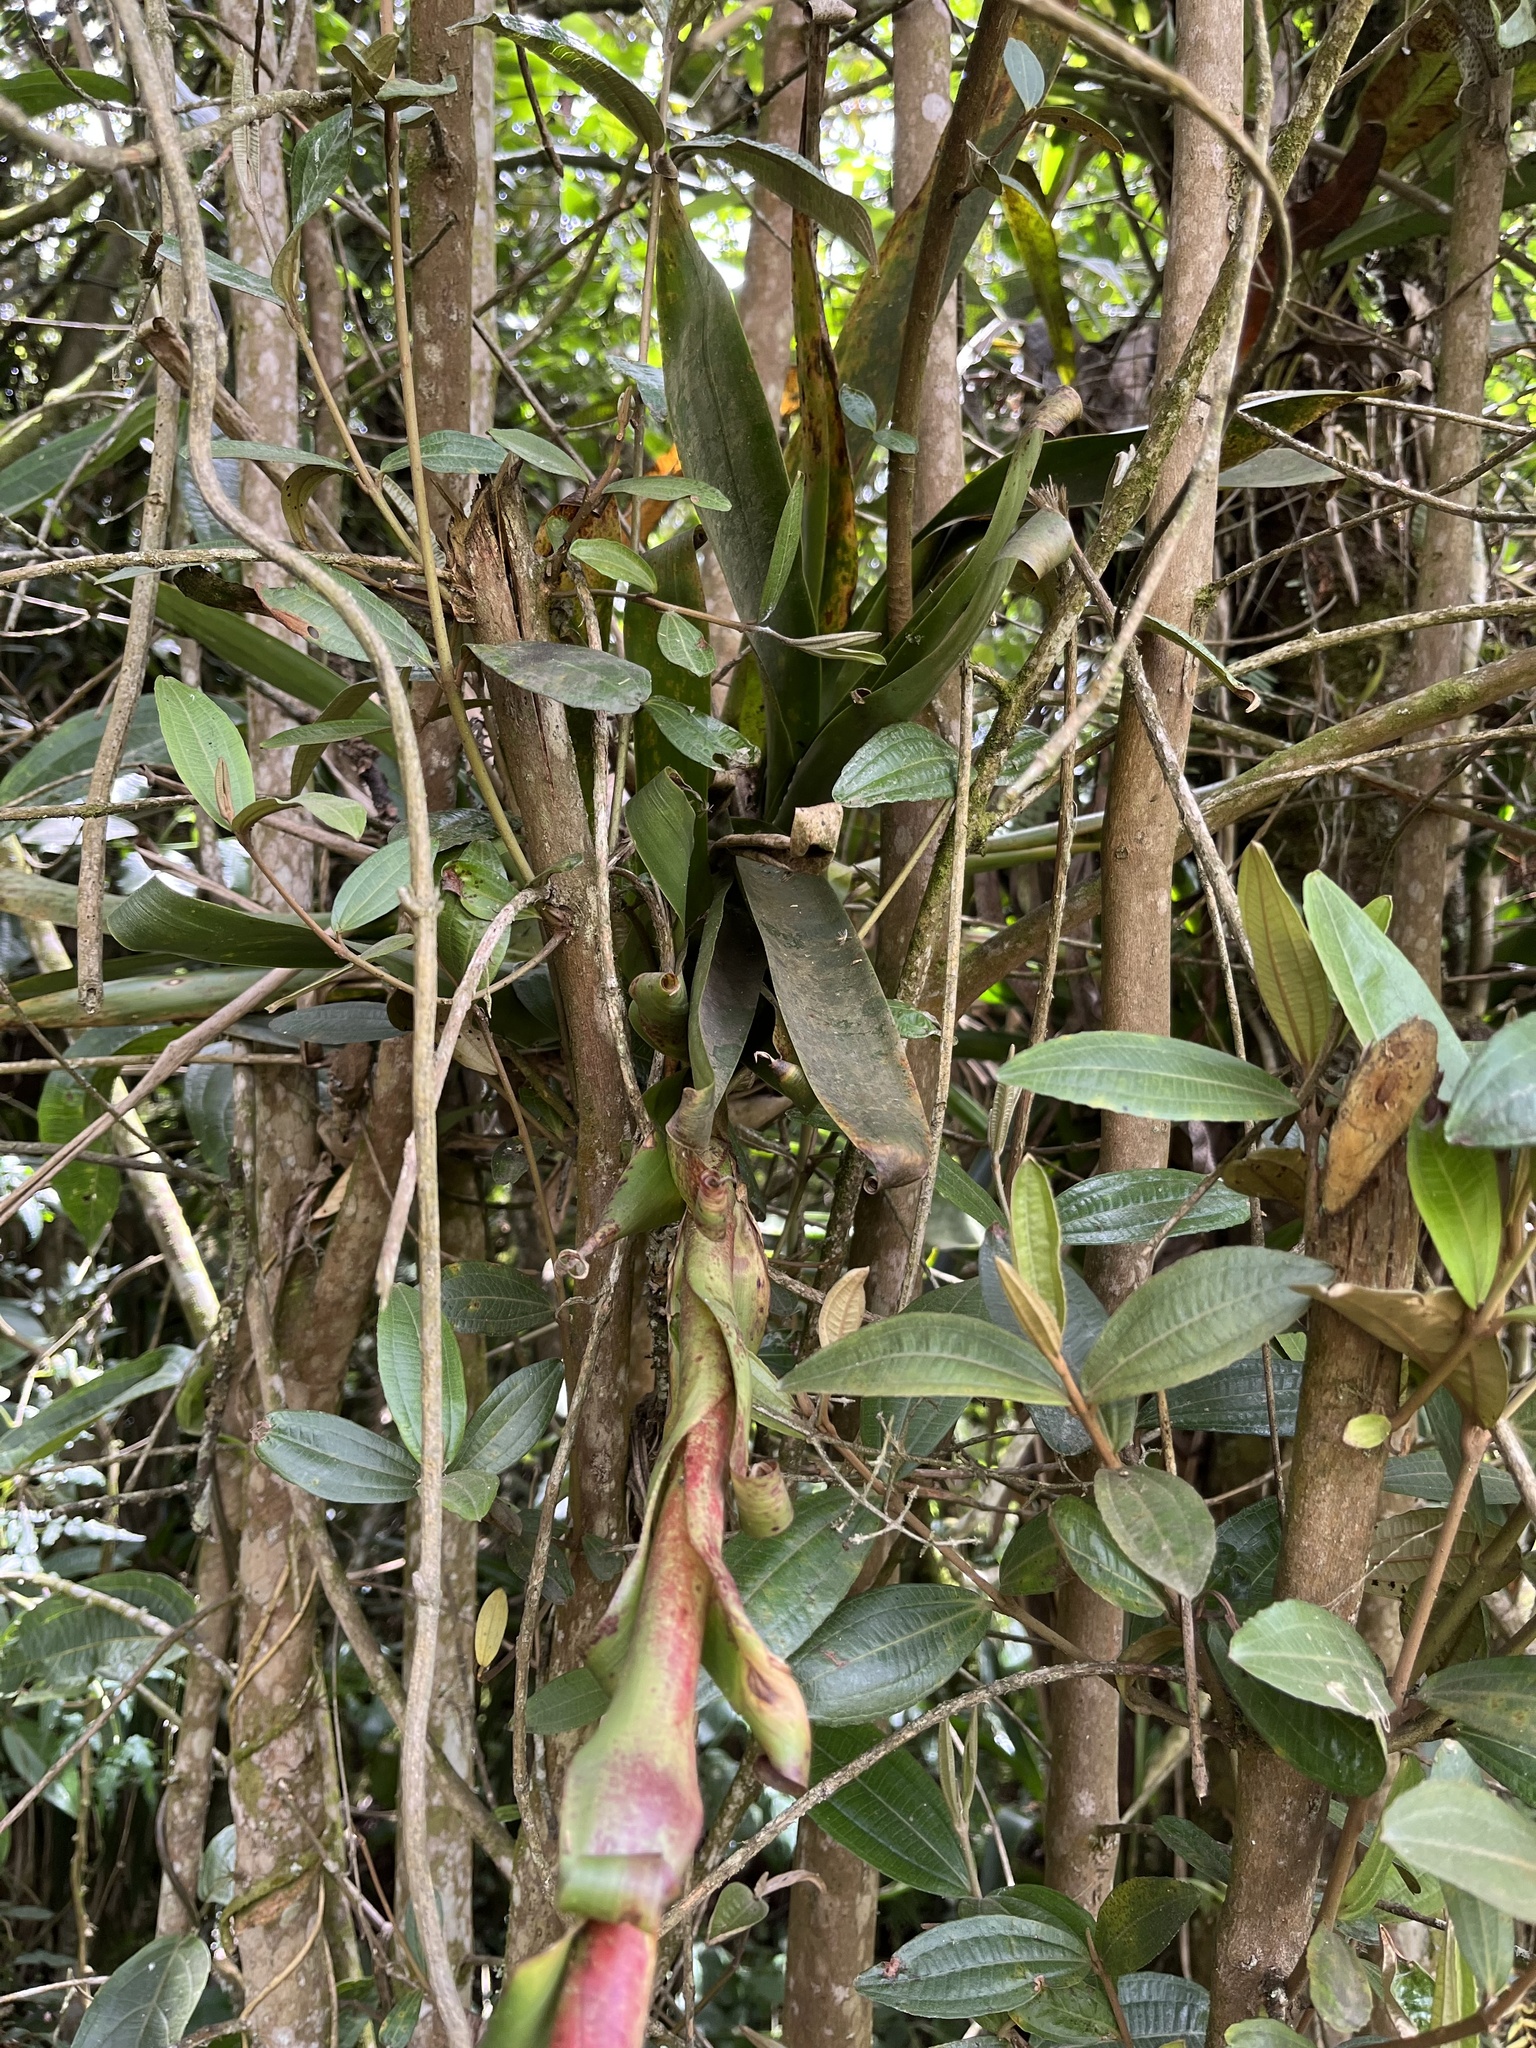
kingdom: Plantae
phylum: Tracheophyta
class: Liliopsida
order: Poales
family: Bromeliaceae
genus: Tillandsia
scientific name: Tillandsia pastensis
